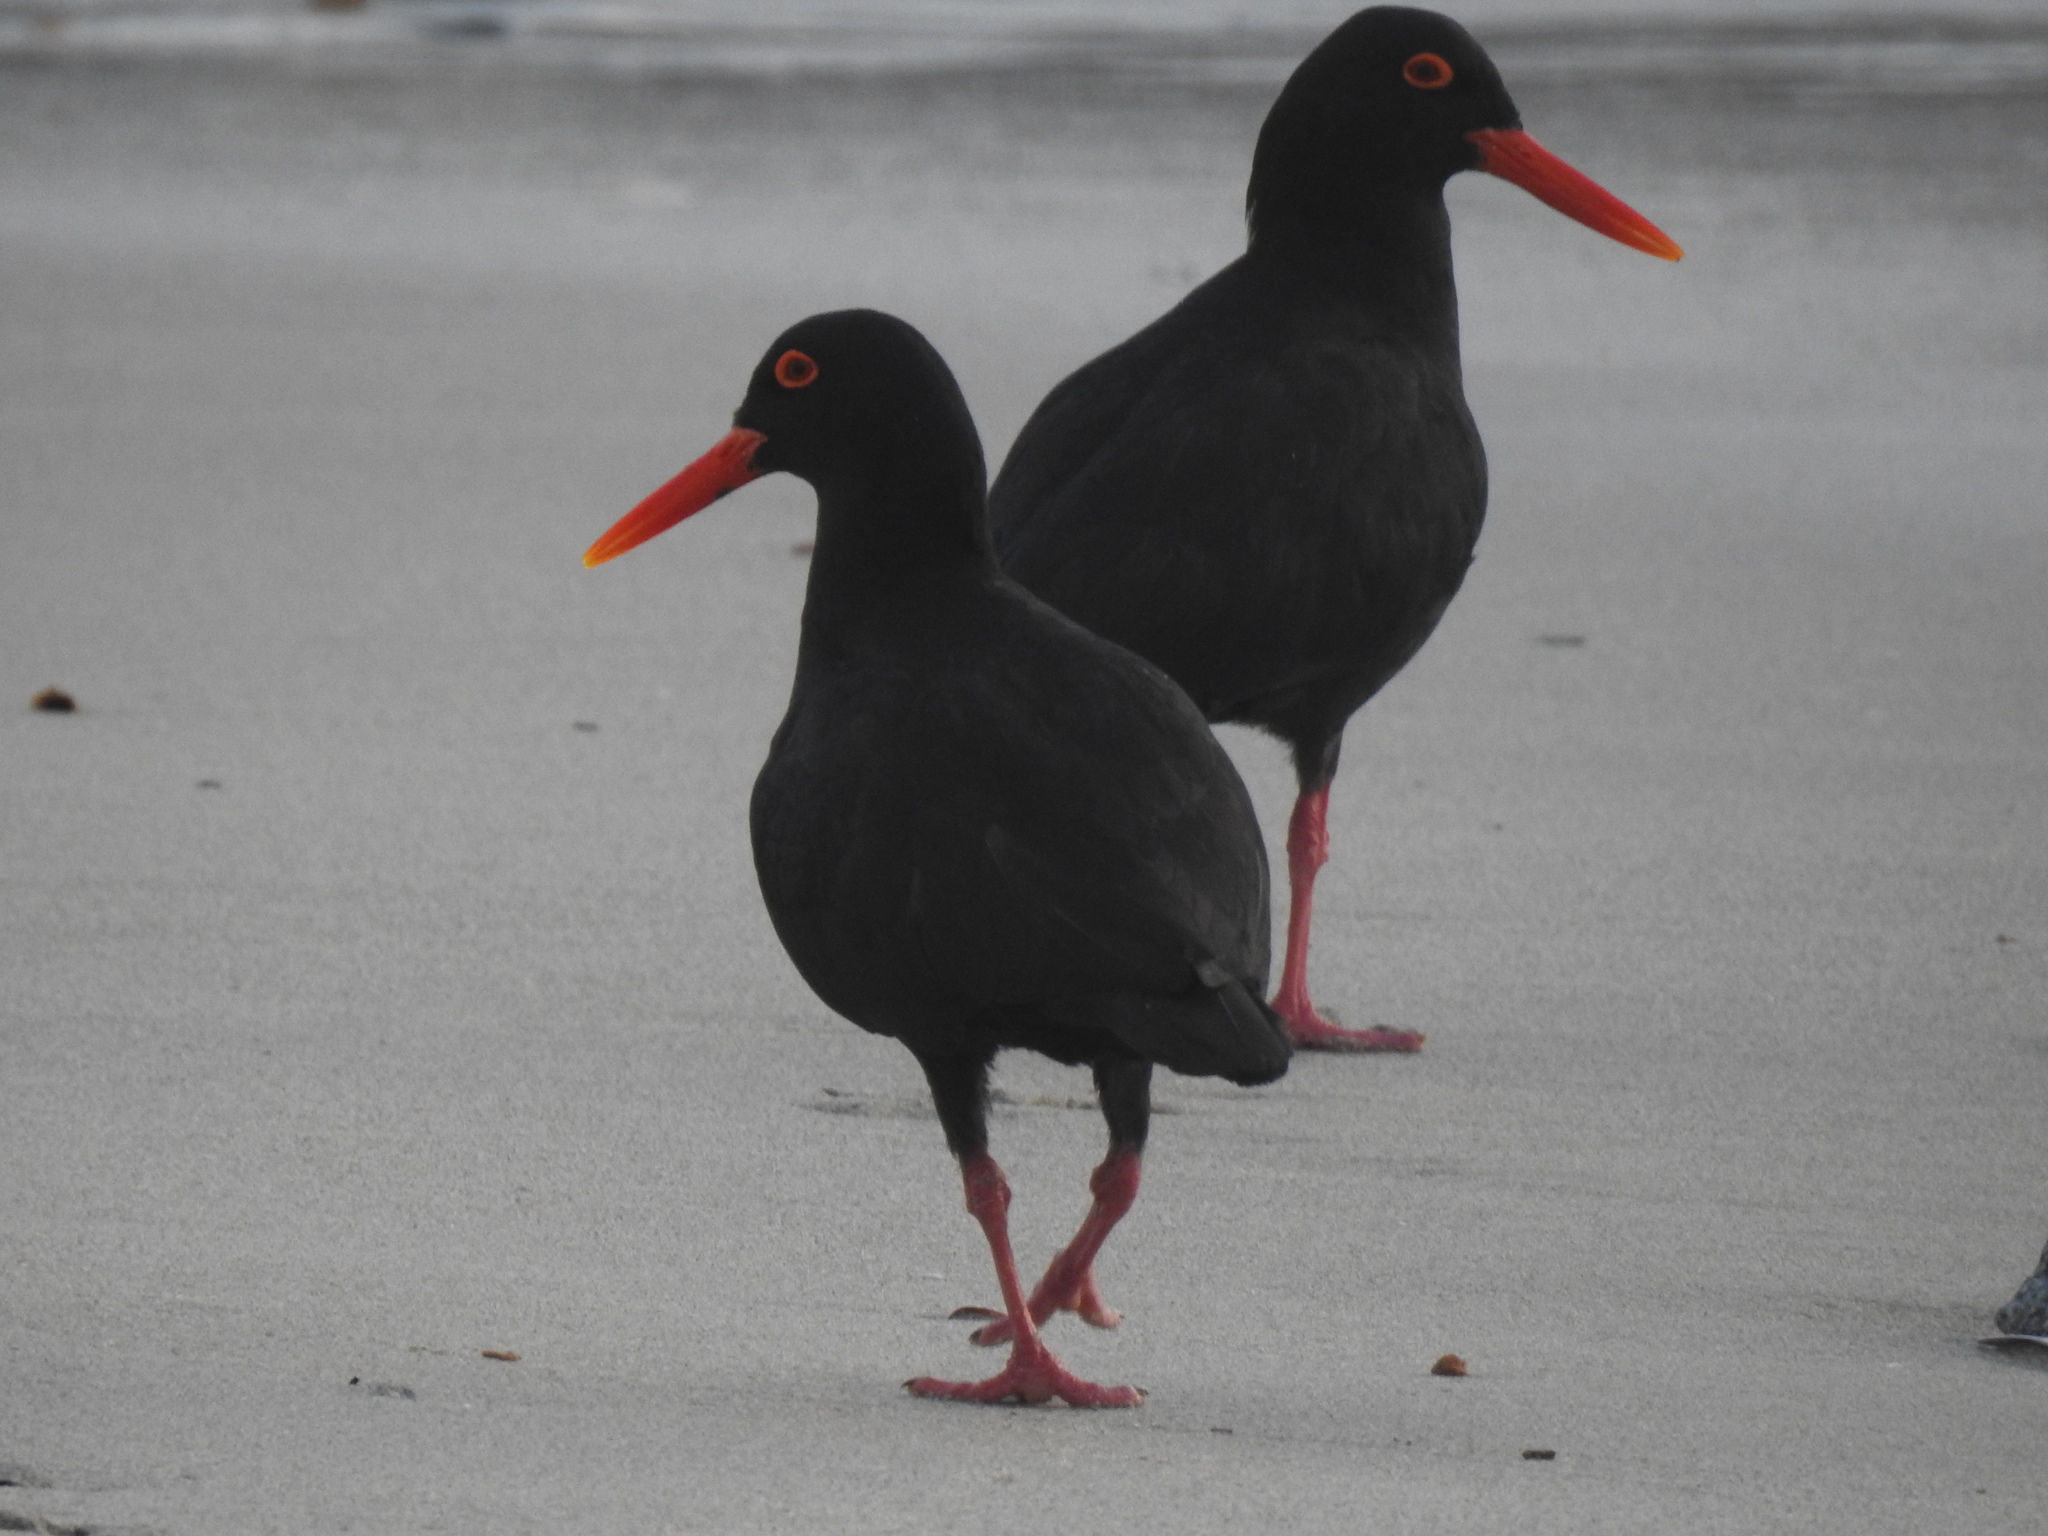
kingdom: Animalia
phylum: Chordata
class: Aves
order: Charadriiformes
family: Haematopodidae
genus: Haematopus
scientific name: Haematopus moquini
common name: African oystercatcher
